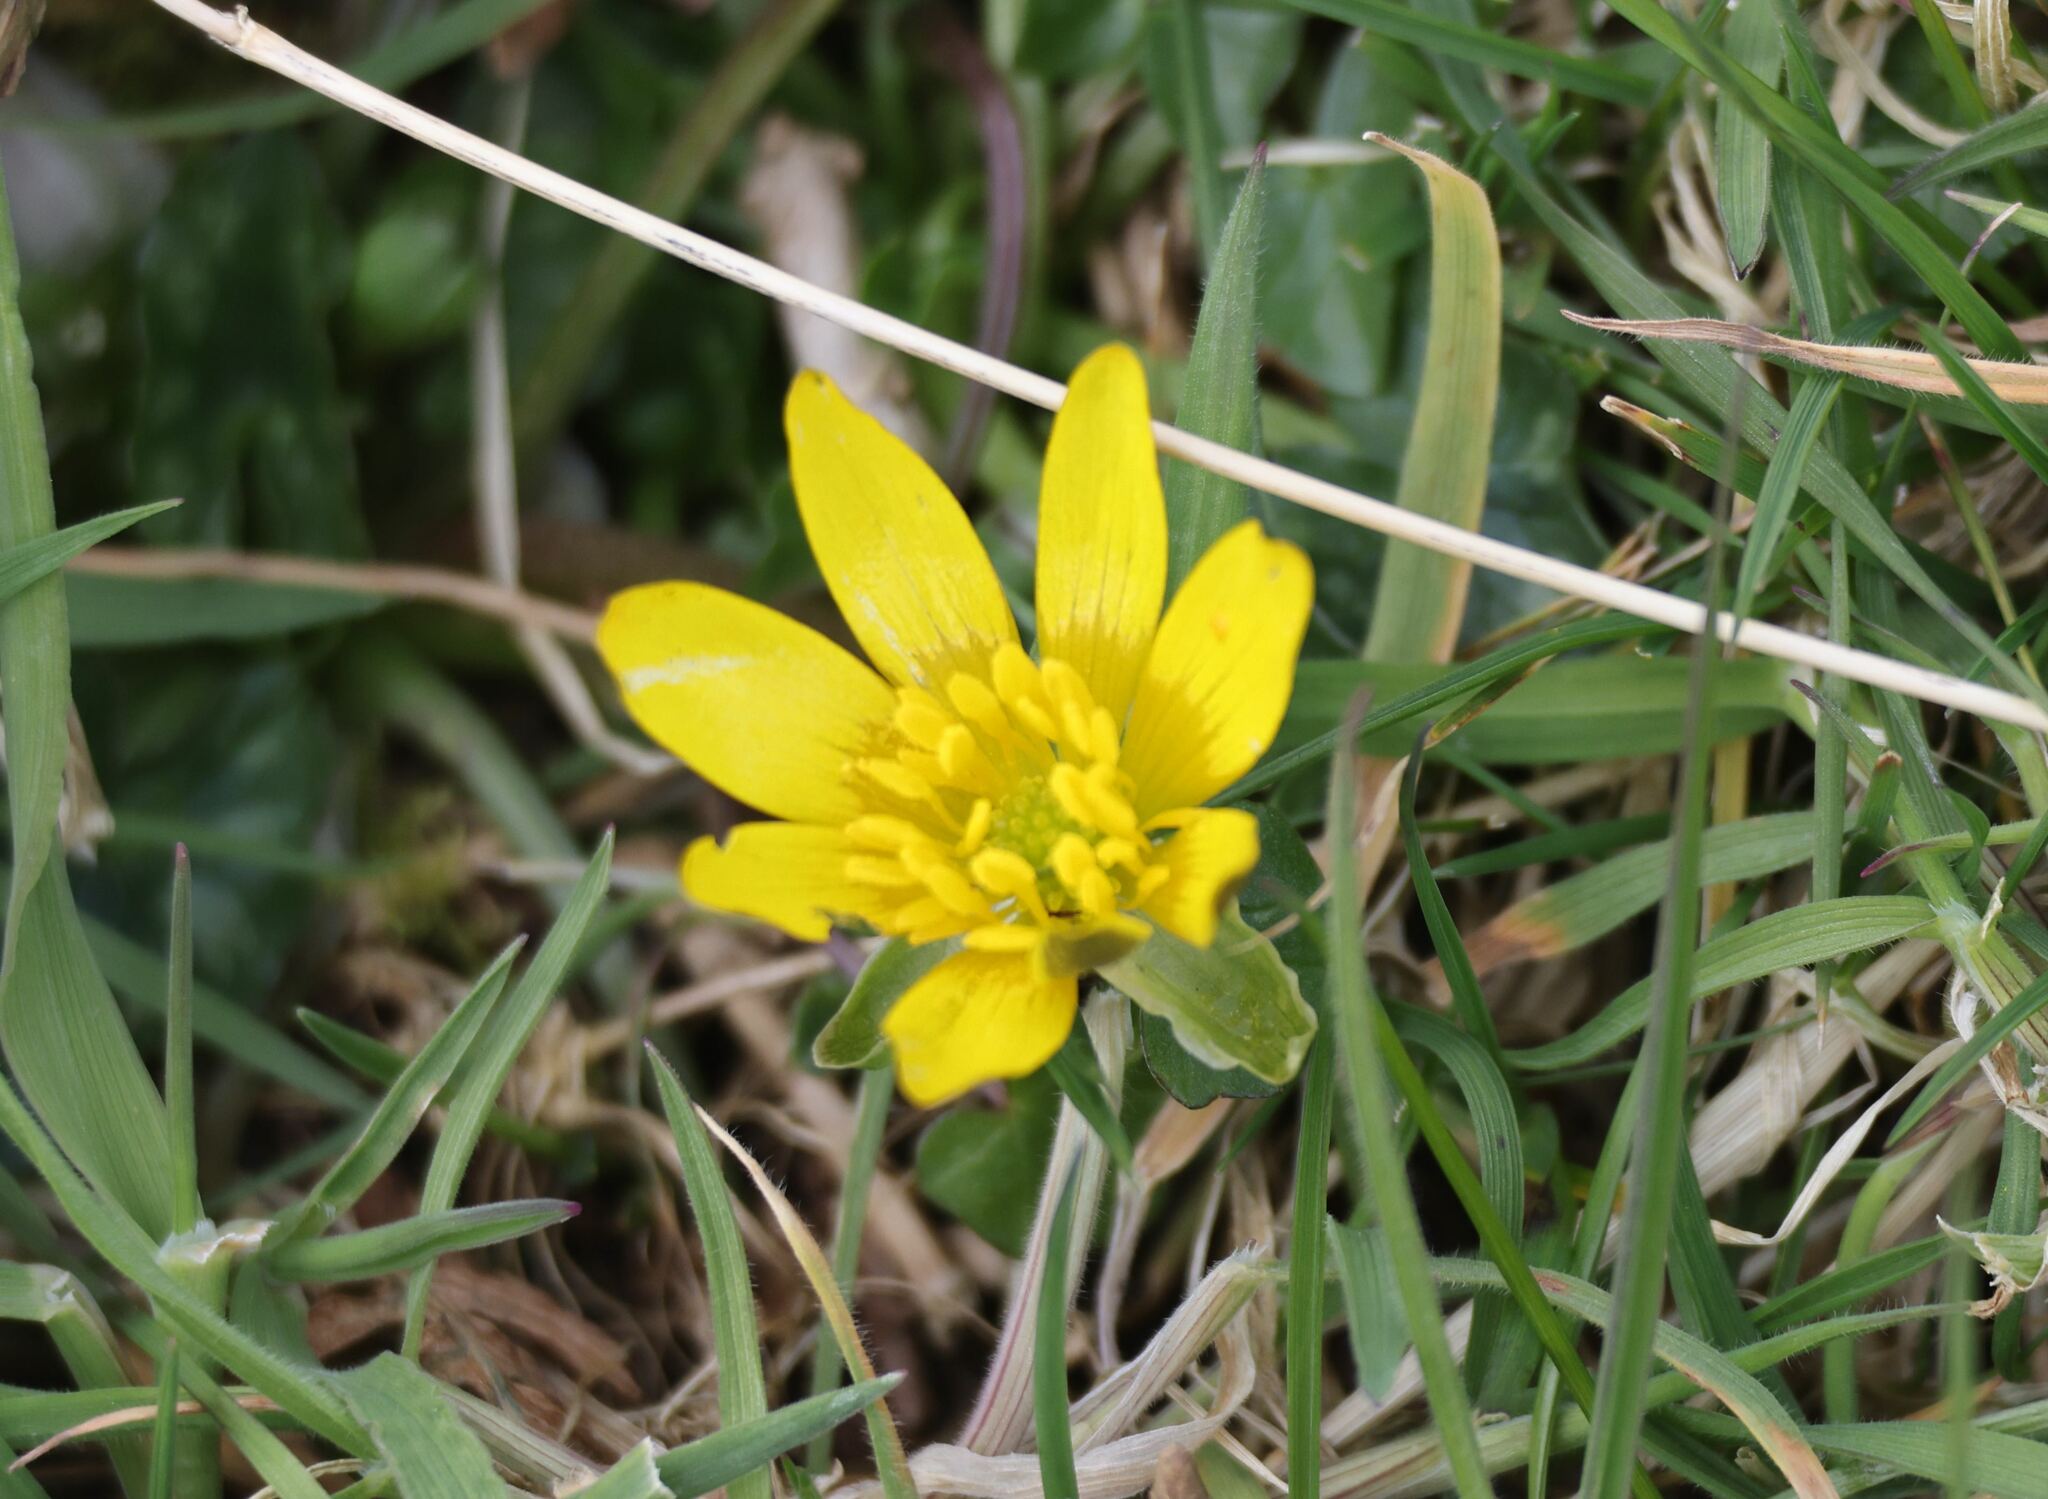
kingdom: Plantae
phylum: Tracheophyta
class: Magnoliopsida
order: Ranunculales
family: Ranunculaceae
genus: Ficaria
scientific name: Ficaria verna
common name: Lesser celandine
